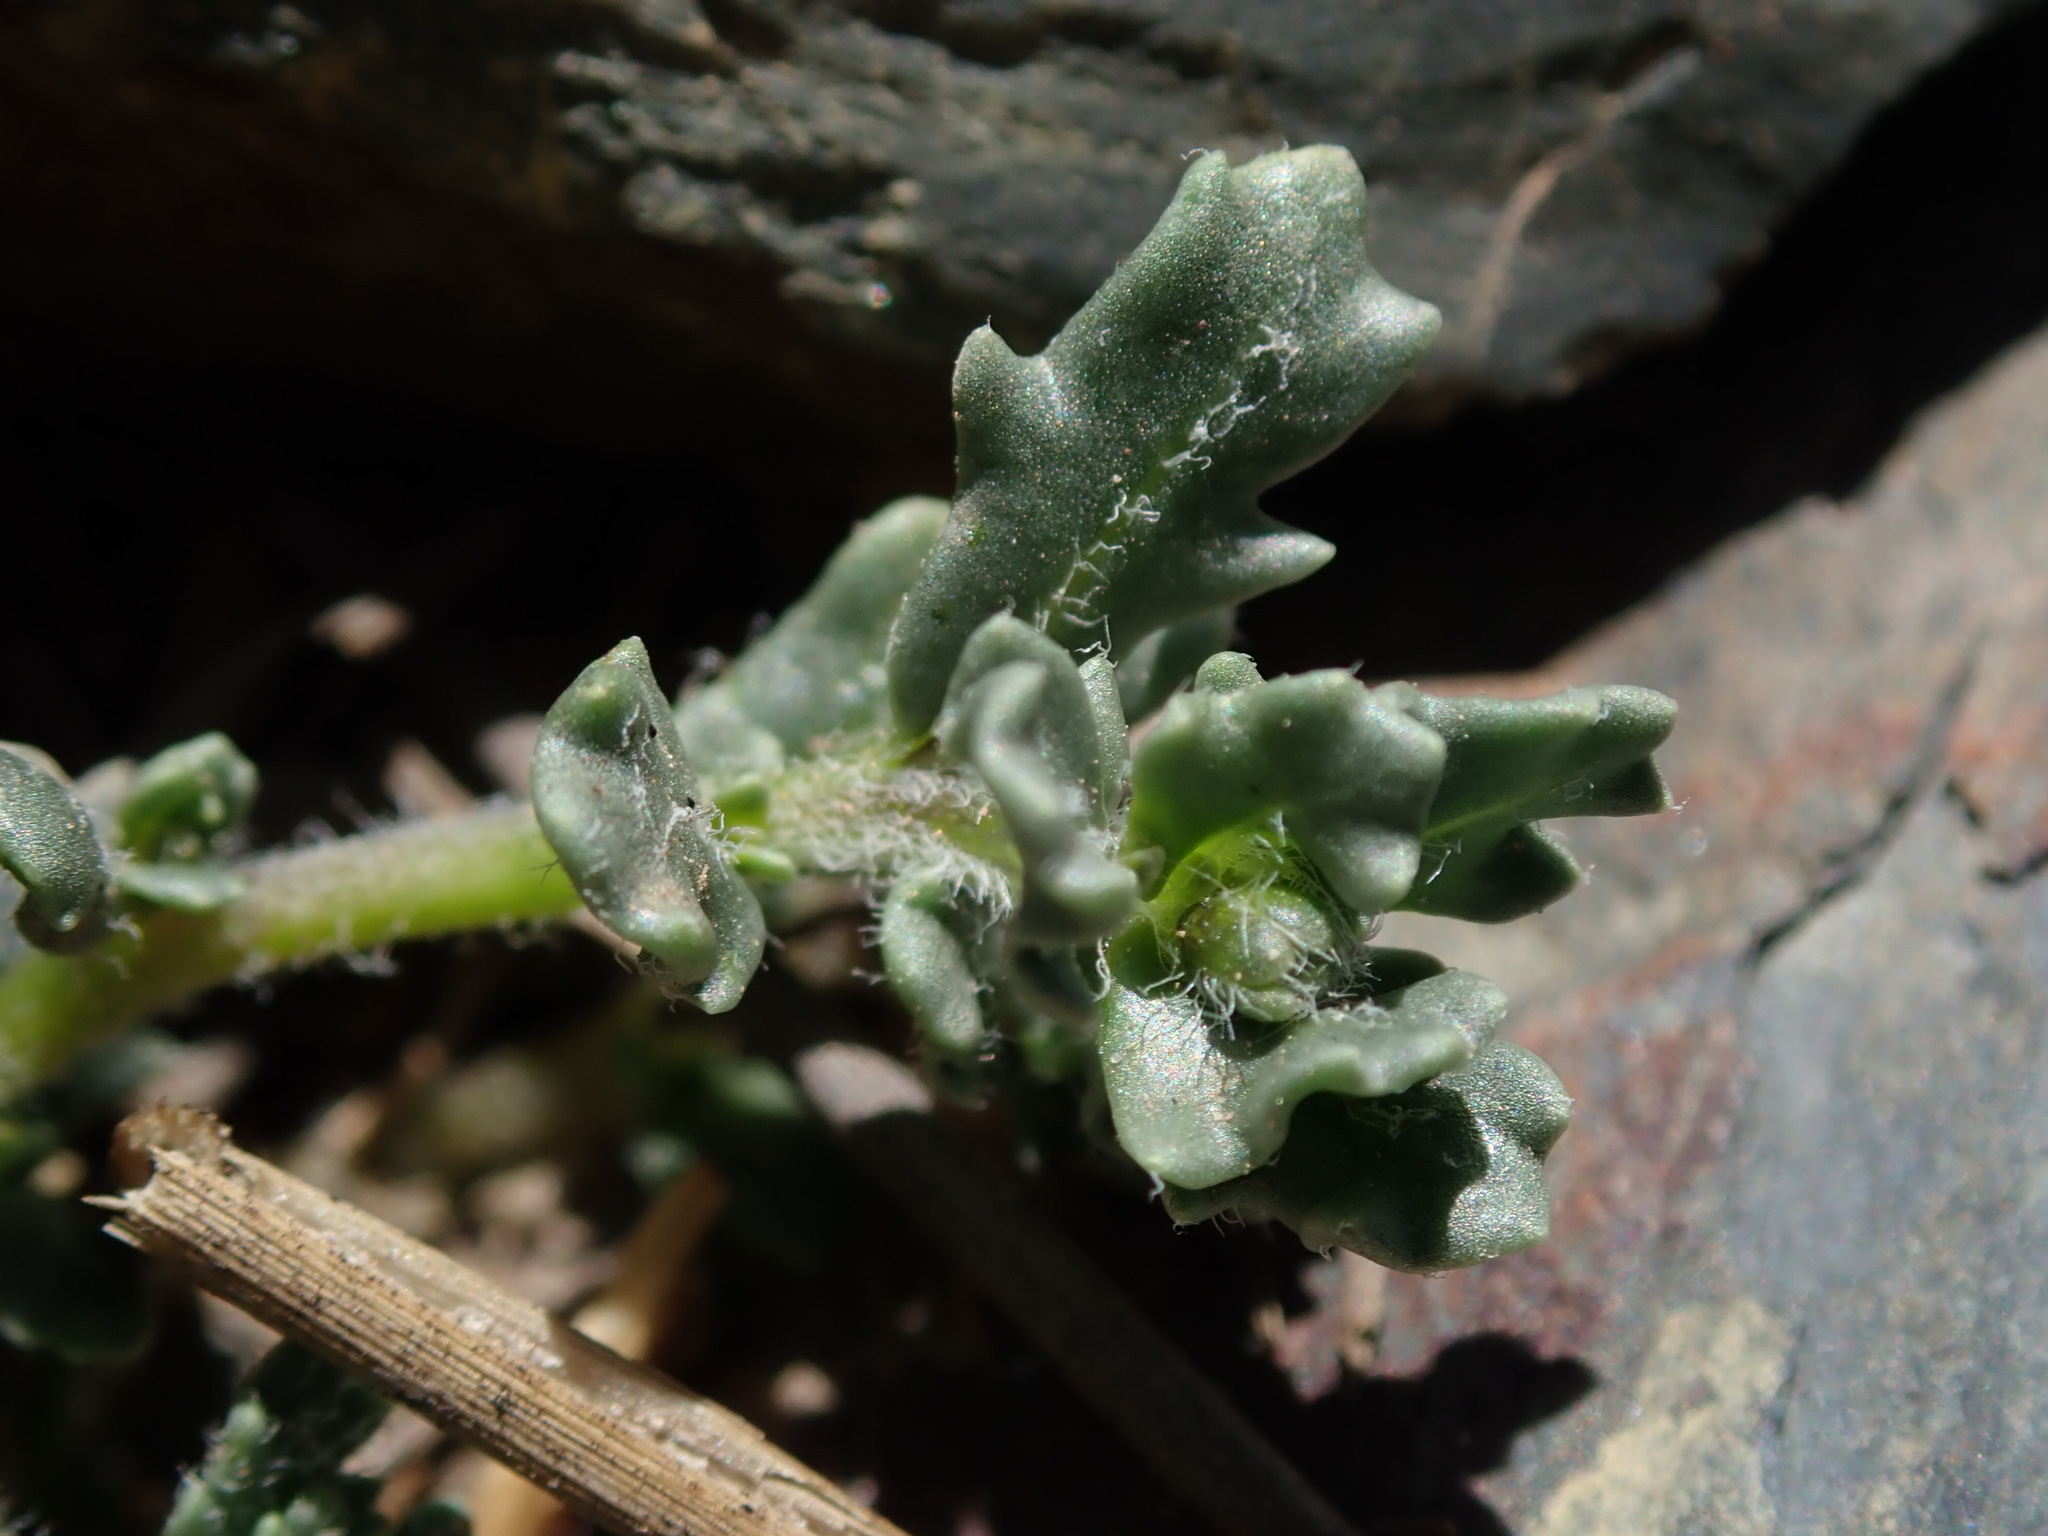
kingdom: Plantae
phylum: Tracheophyta
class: Magnoliopsida
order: Solanales
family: Solanaceae
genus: Solanum
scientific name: Solanum sinuatirecurvum
